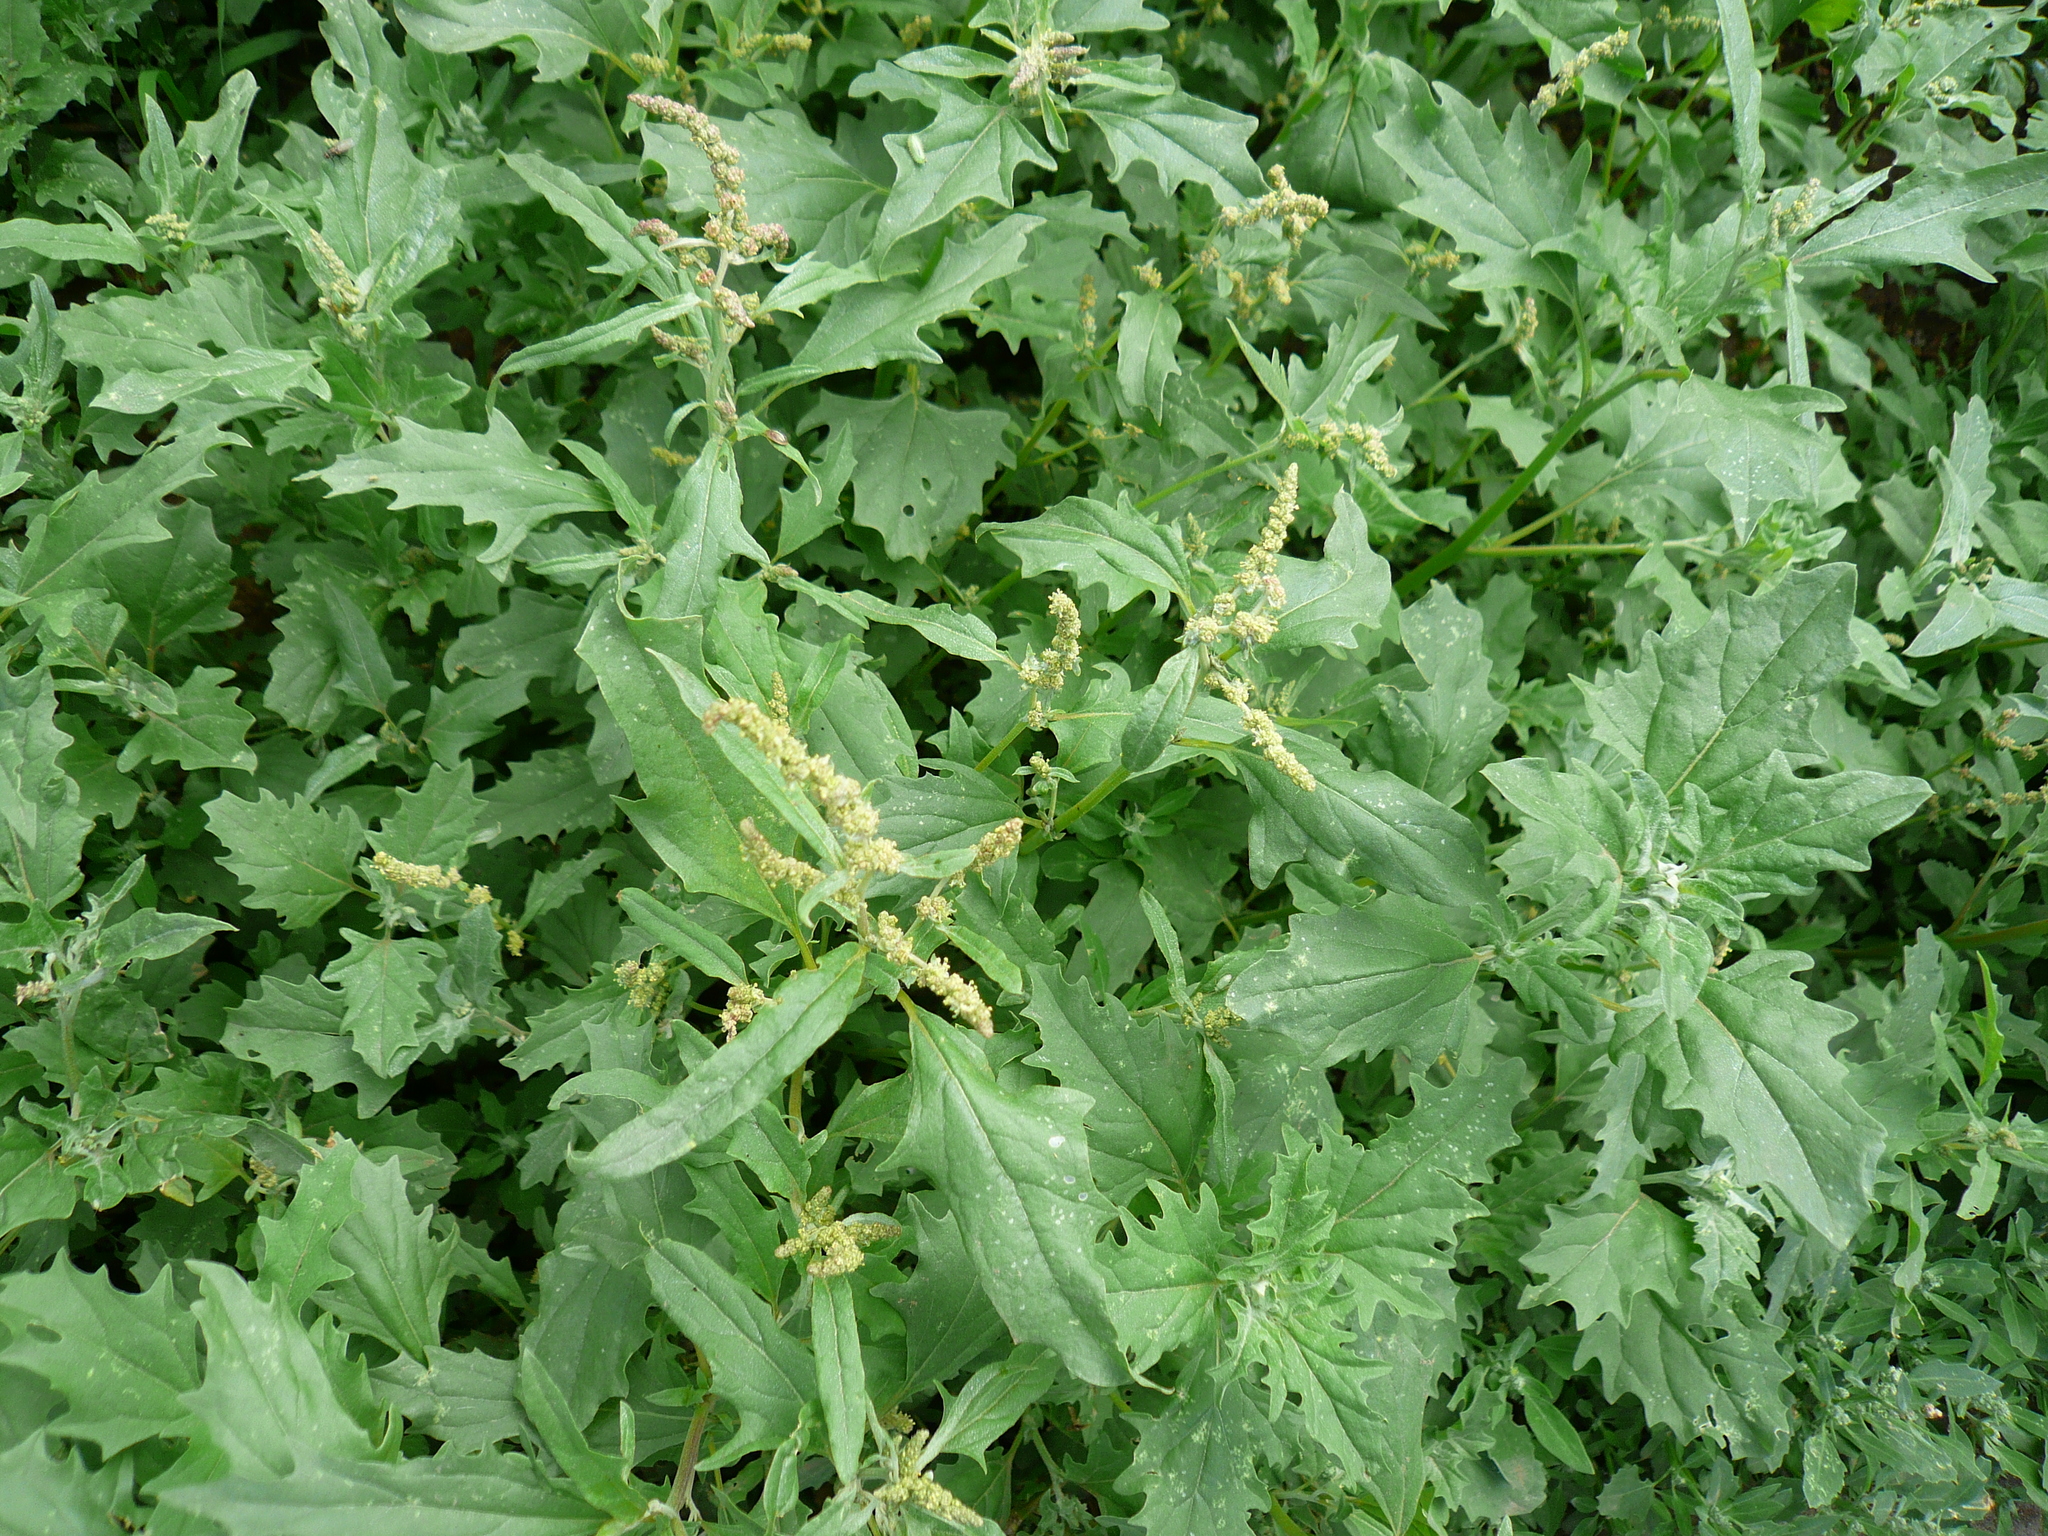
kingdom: Plantae
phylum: Tracheophyta
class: Magnoliopsida
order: Caryophyllales
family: Amaranthaceae
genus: Atriplex
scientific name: Atriplex tatarica
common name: Tatarian orache
